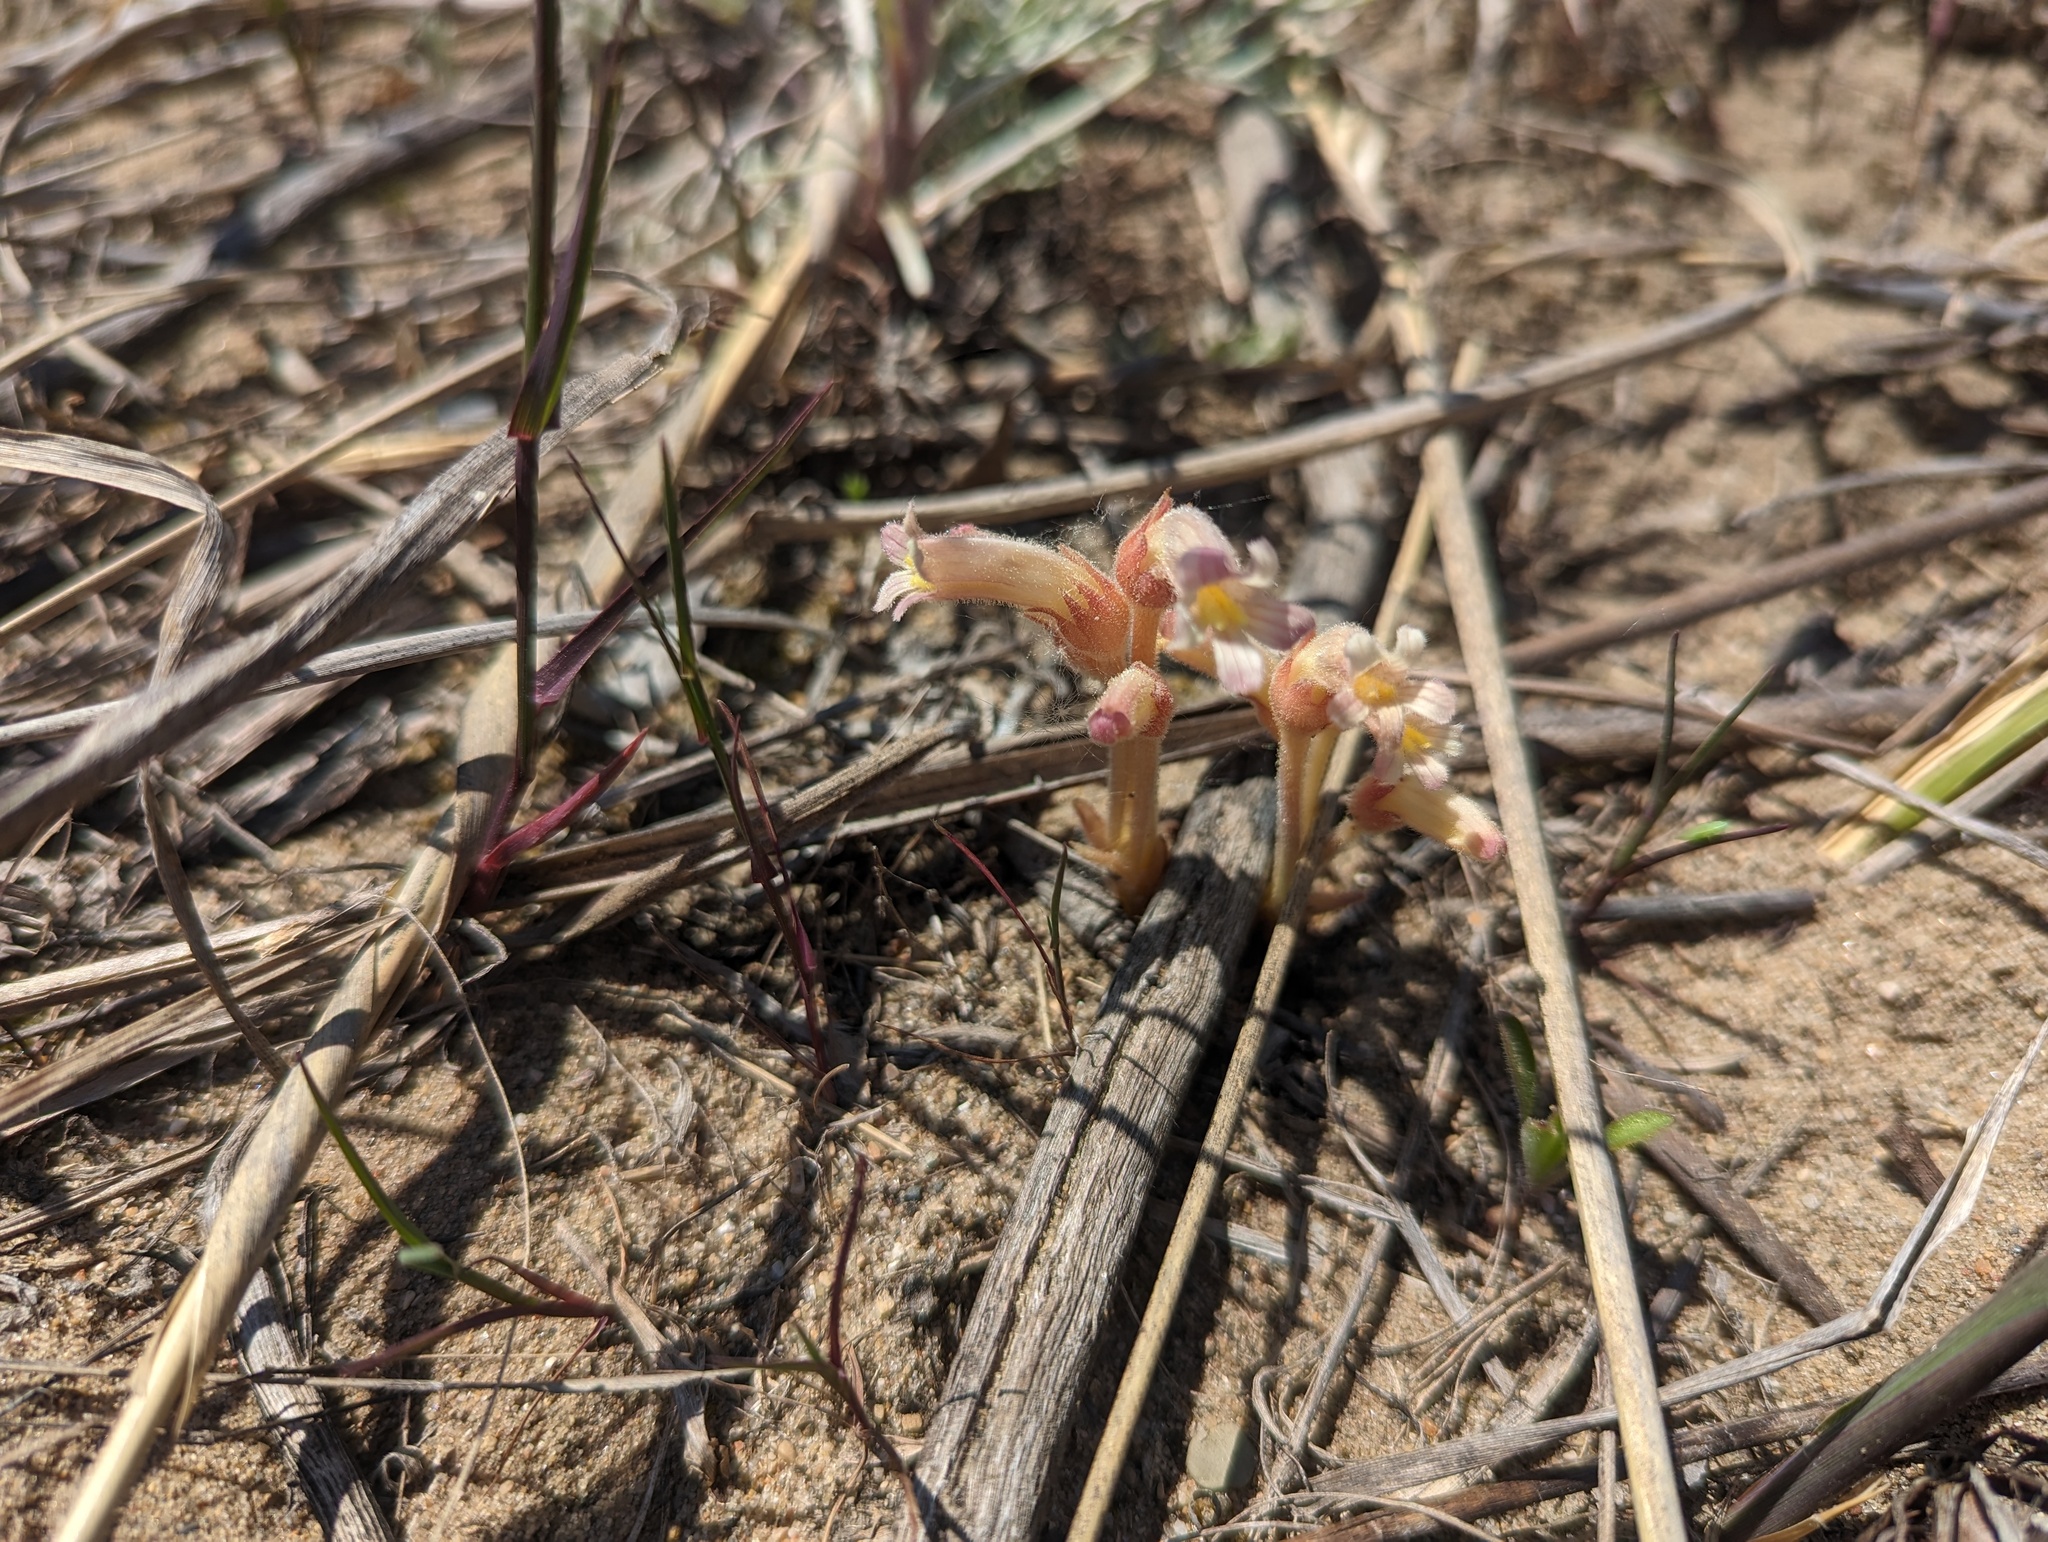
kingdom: Plantae
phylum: Tracheophyta
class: Magnoliopsida
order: Lamiales
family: Orobanchaceae
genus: Aphyllon
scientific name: Aphyllon fasciculatum
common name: Clustered broomrape
